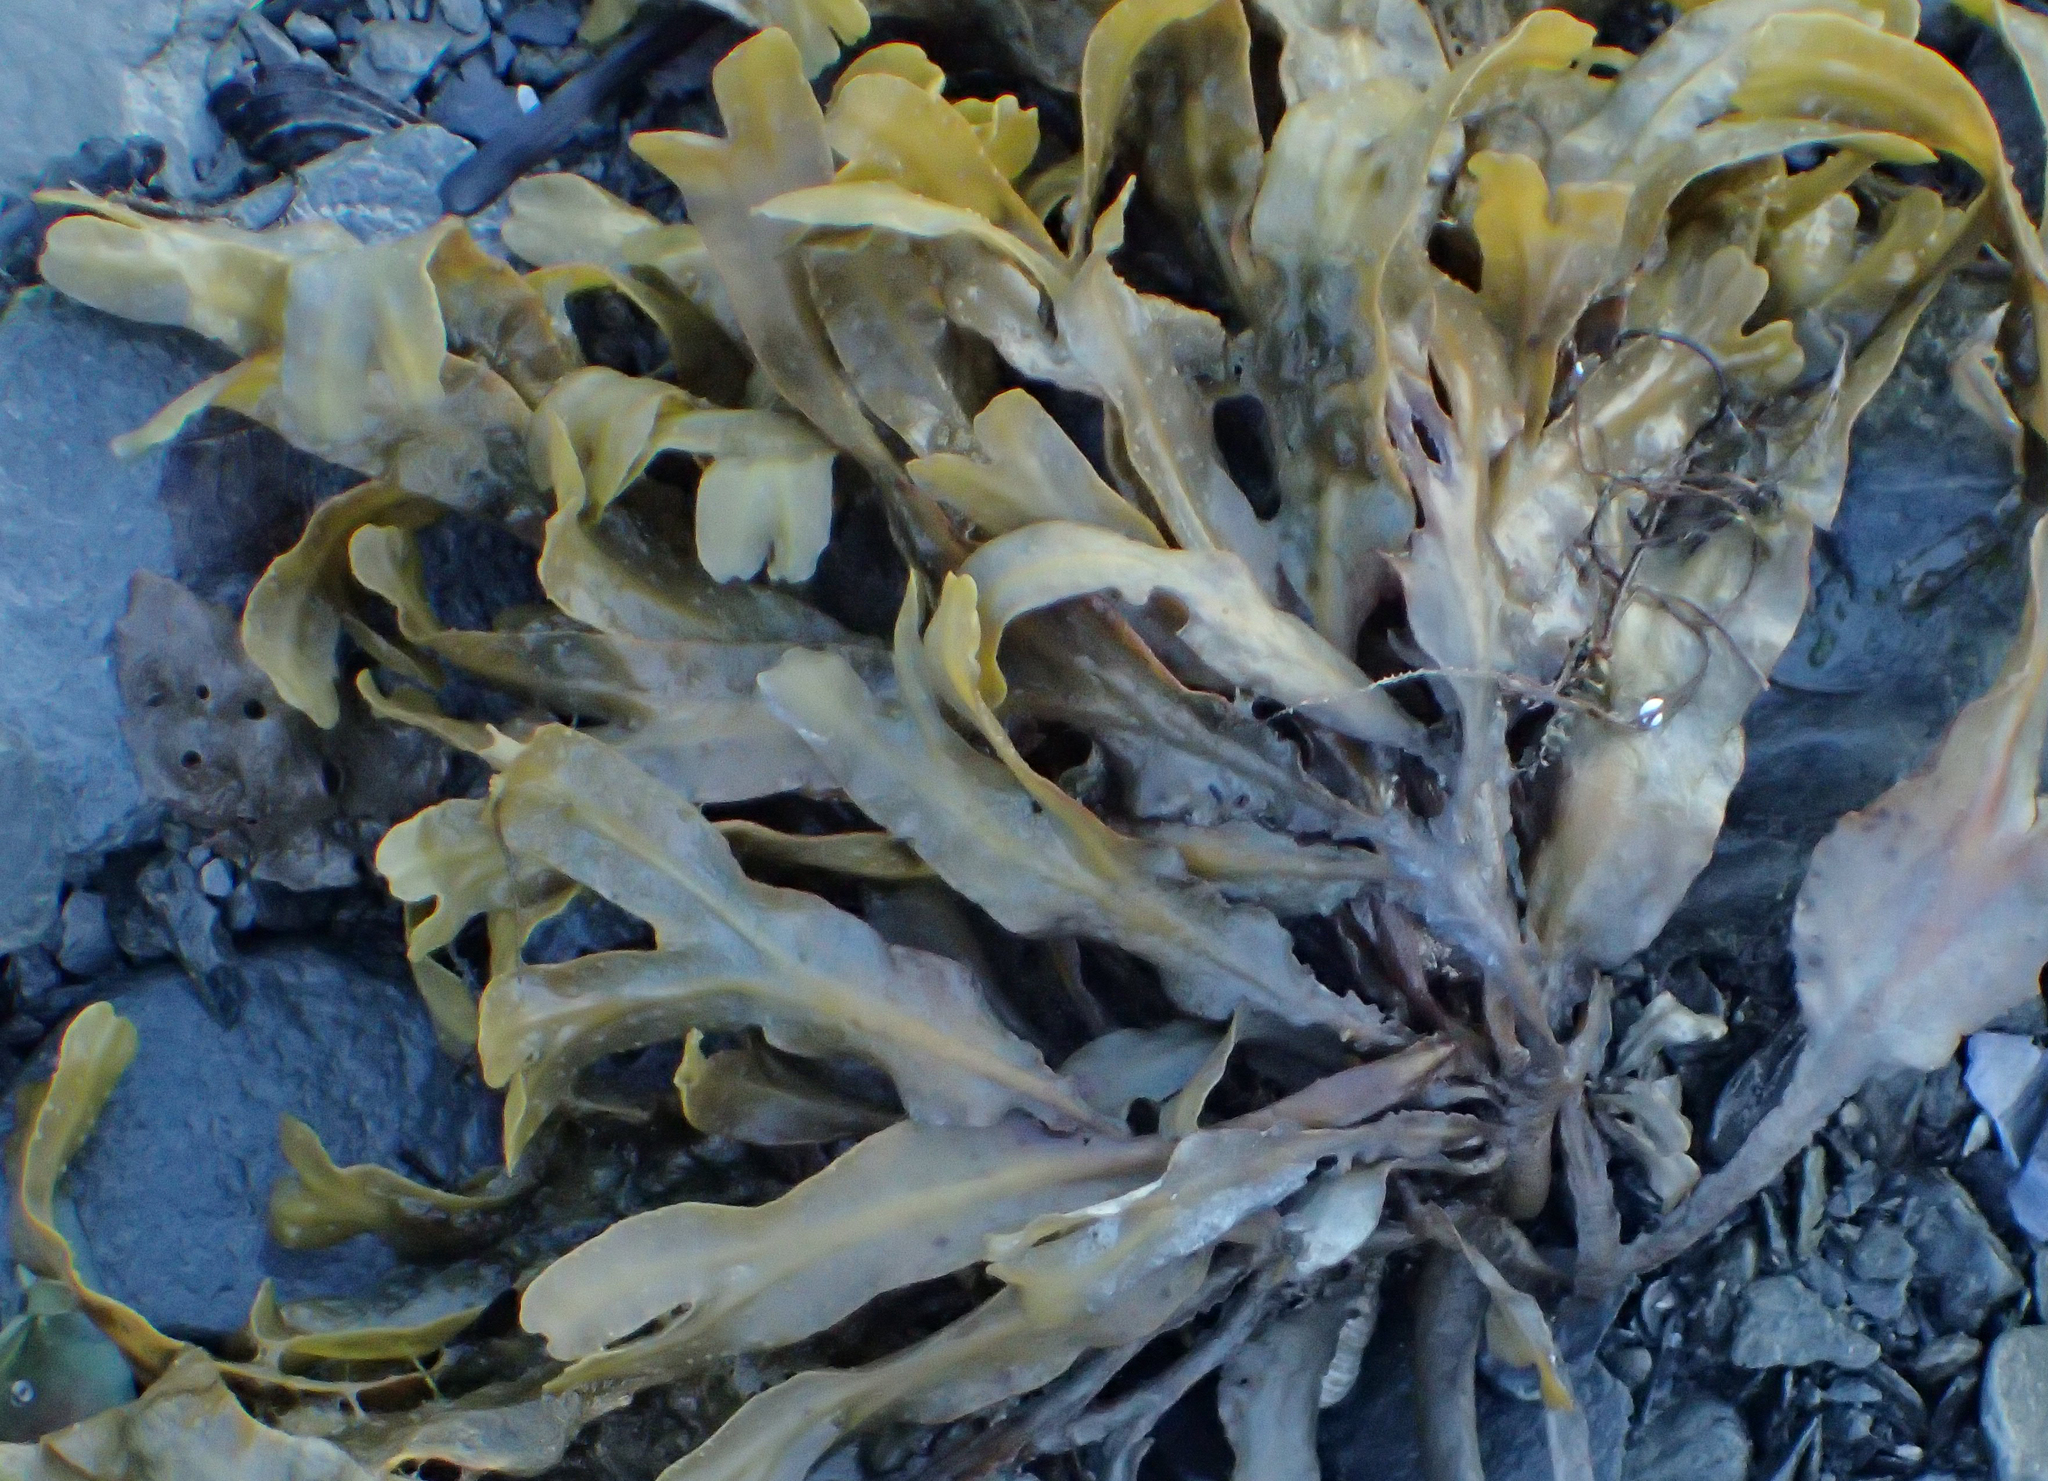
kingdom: Chromista
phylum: Ochrophyta
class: Phaeophyceae
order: Fucales
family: Fucaceae
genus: Fucus
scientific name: Fucus distichus
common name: Rockweed
